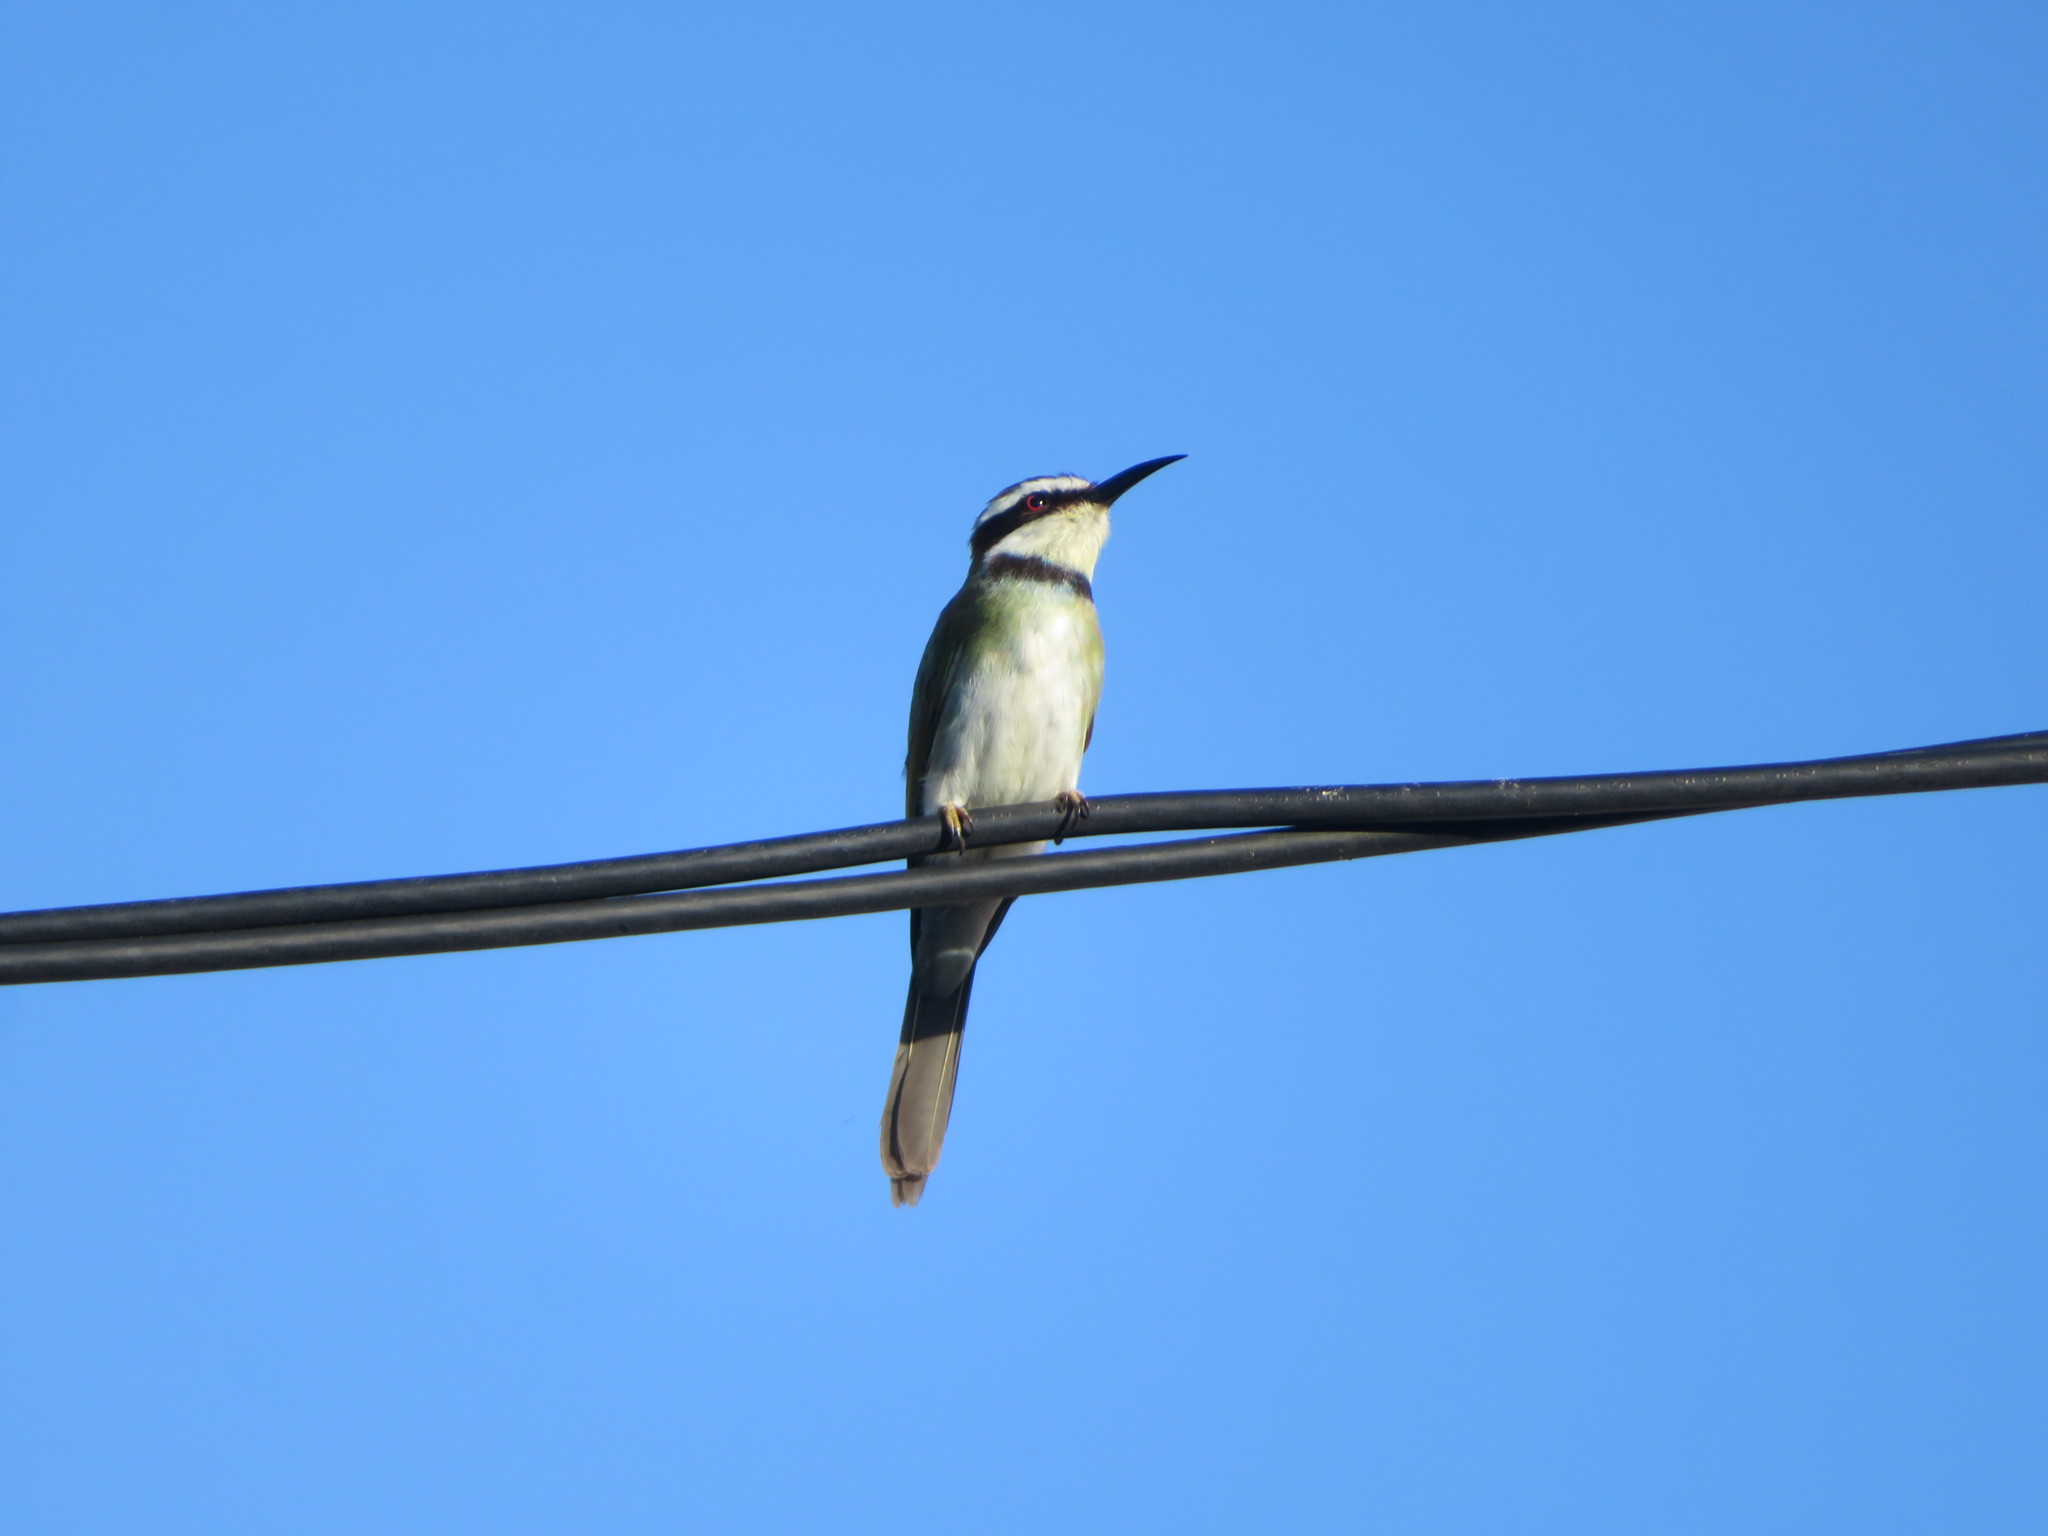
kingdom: Animalia
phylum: Chordata
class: Aves
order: Coraciiformes
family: Meropidae
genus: Merops
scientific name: Merops albicollis
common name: White-throated bee-eater
